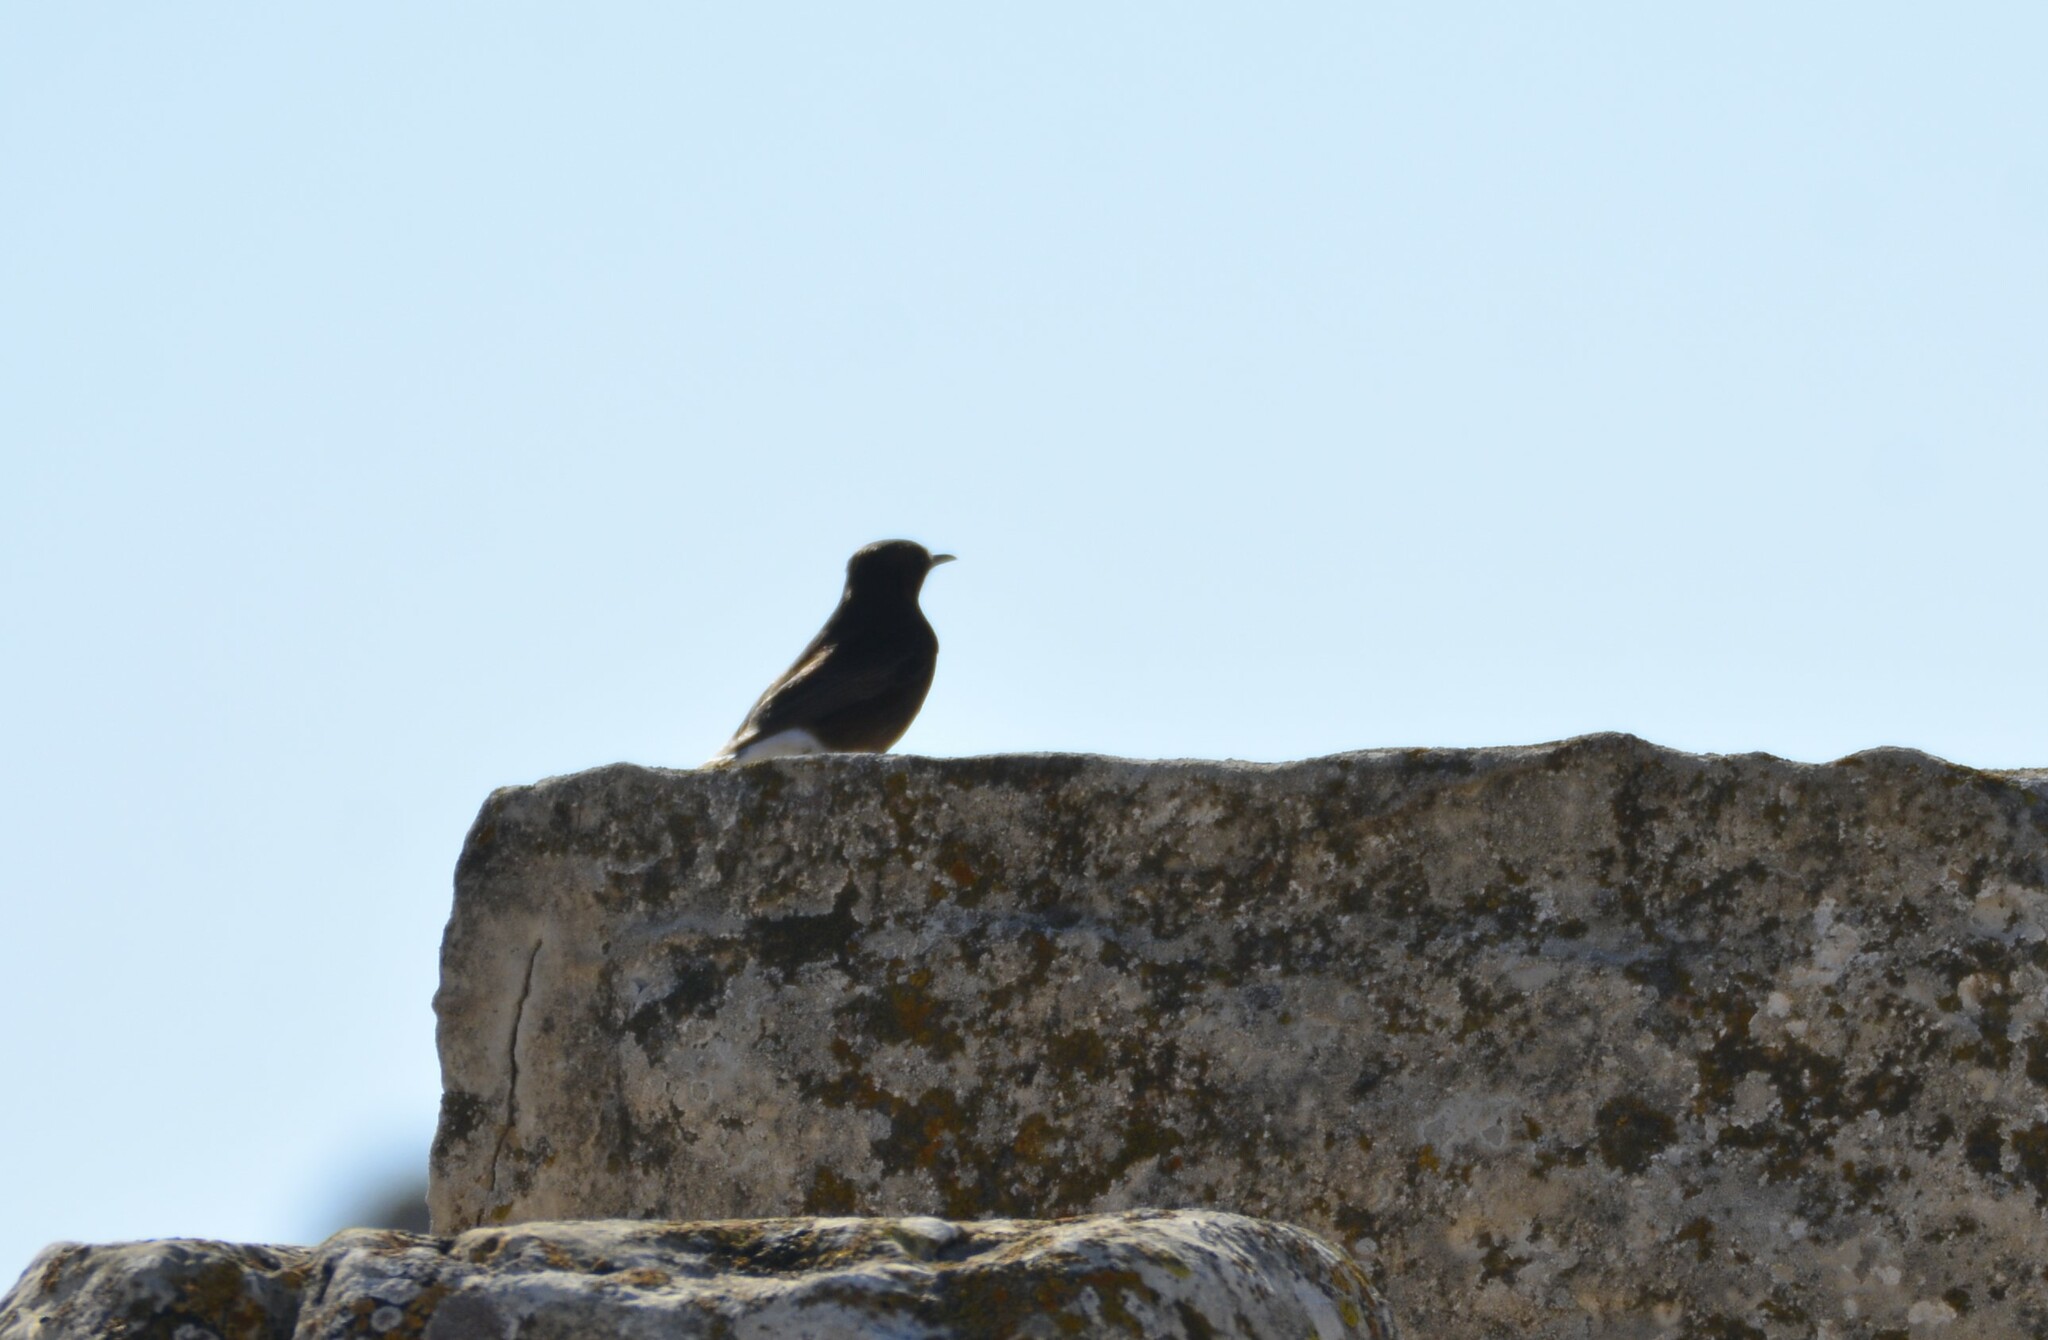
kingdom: Animalia
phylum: Chordata
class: Aves
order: Passeriformes
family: Muscicapidae
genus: Oenanthe
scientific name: Oenanthe leucura
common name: Black wheatear
